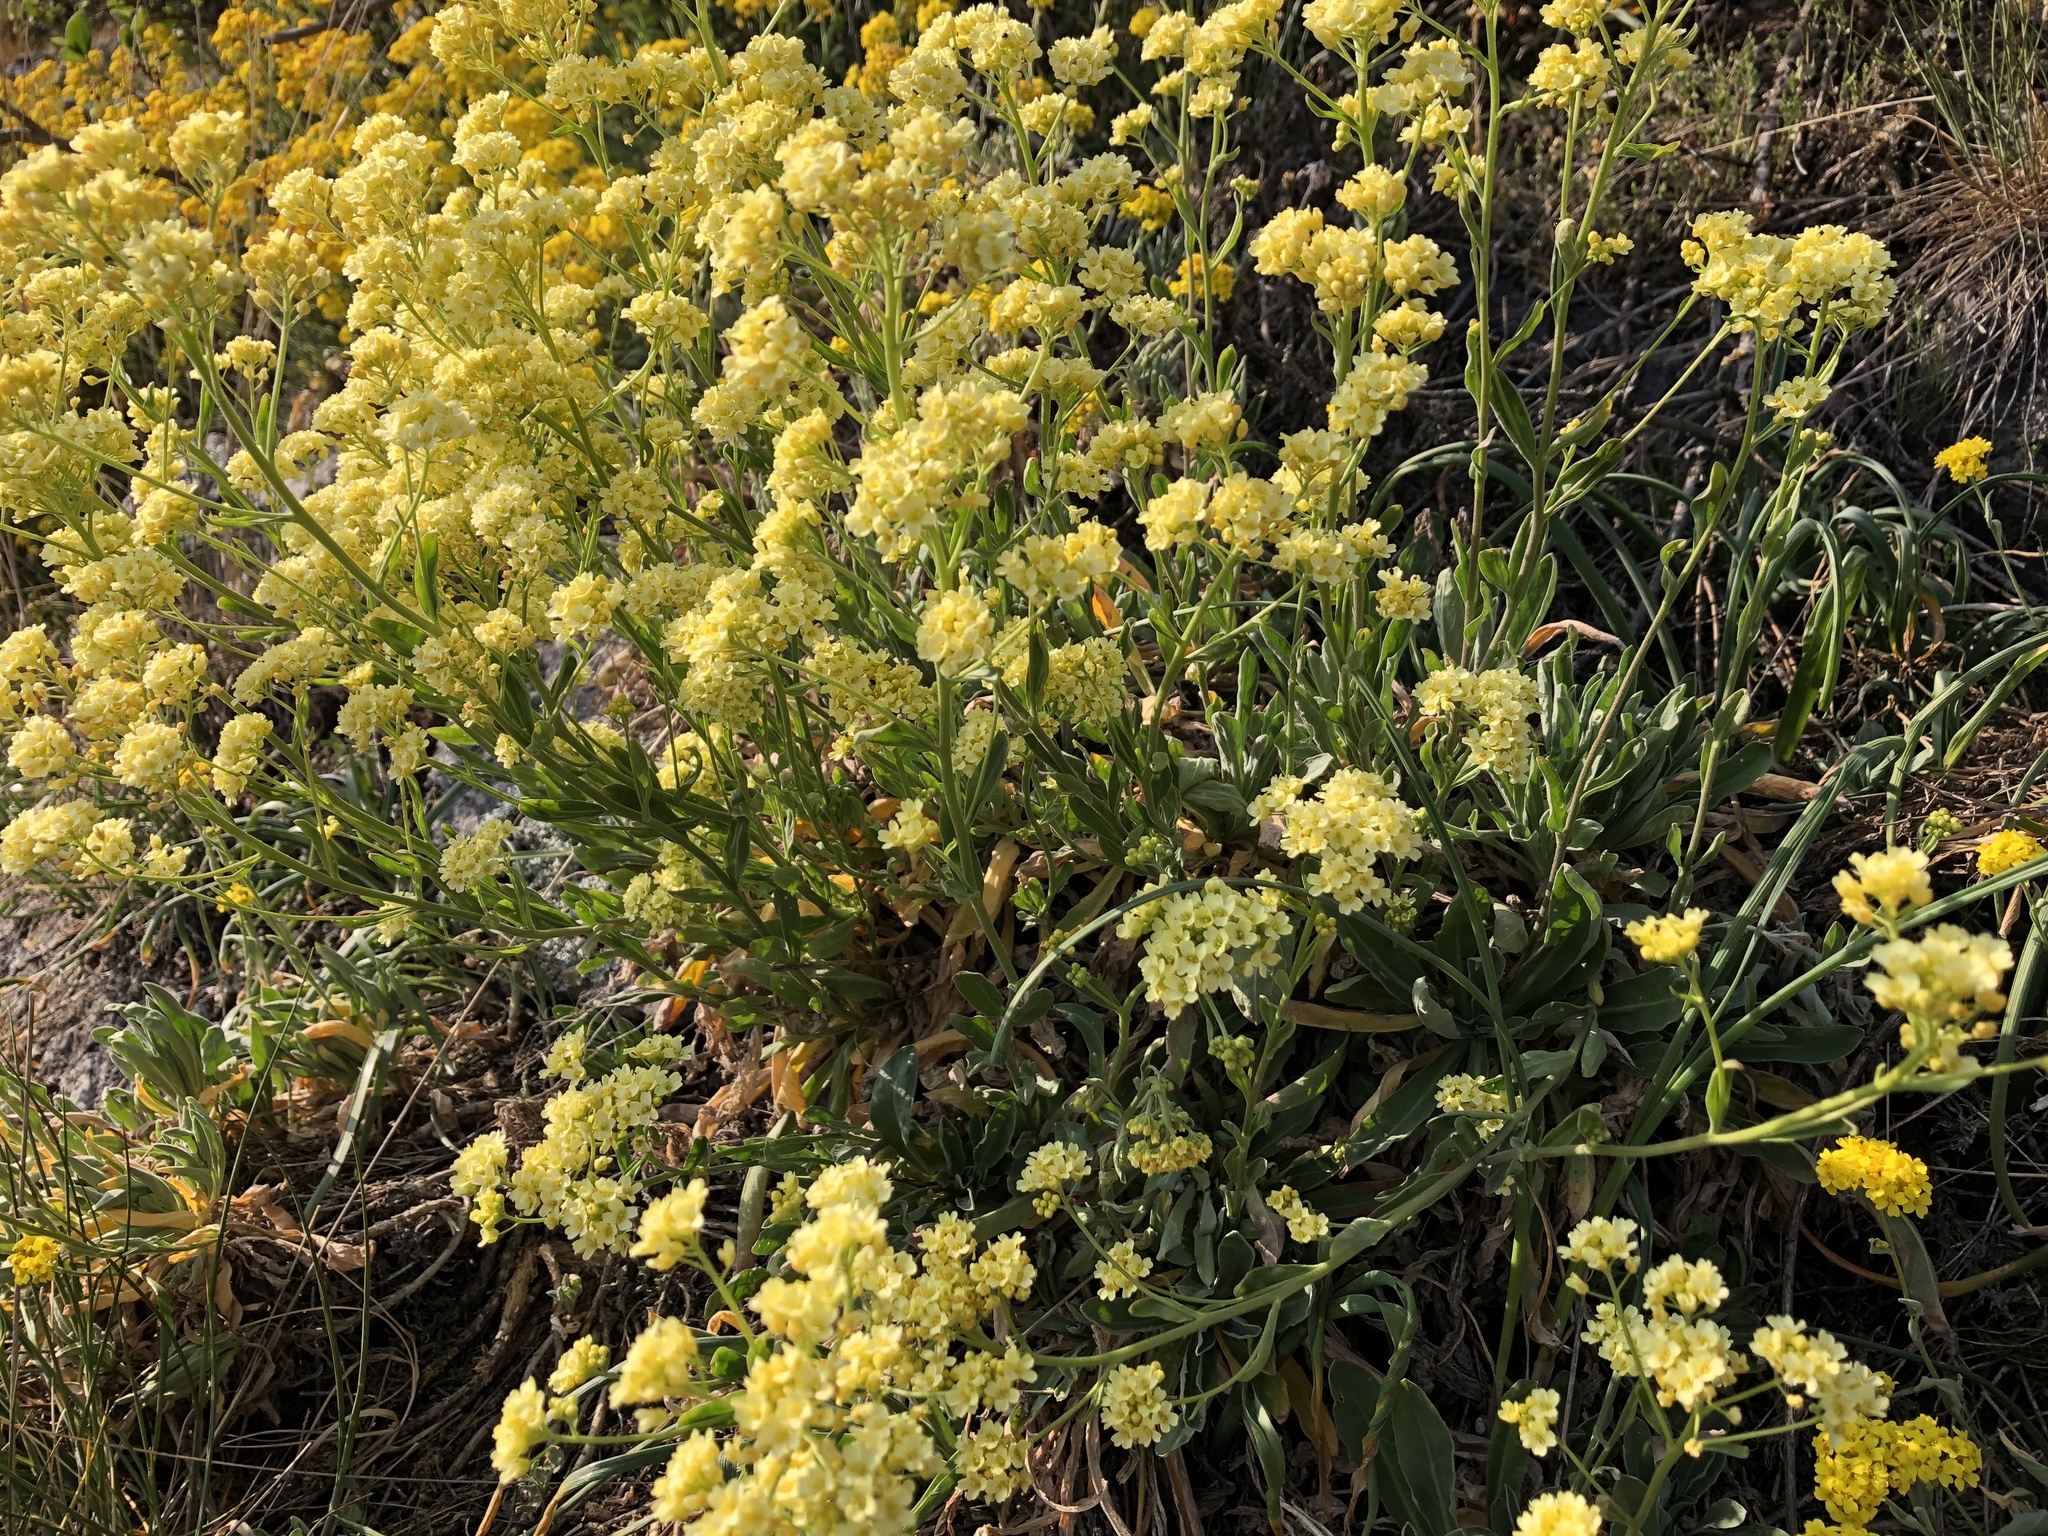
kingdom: Plantae
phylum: Tracheophyta
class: Magnoliopsida
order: Brassicales
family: Brassicaceae
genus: Aurinia
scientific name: Aurinia saxatilis
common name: Golden-tuft alyssum
